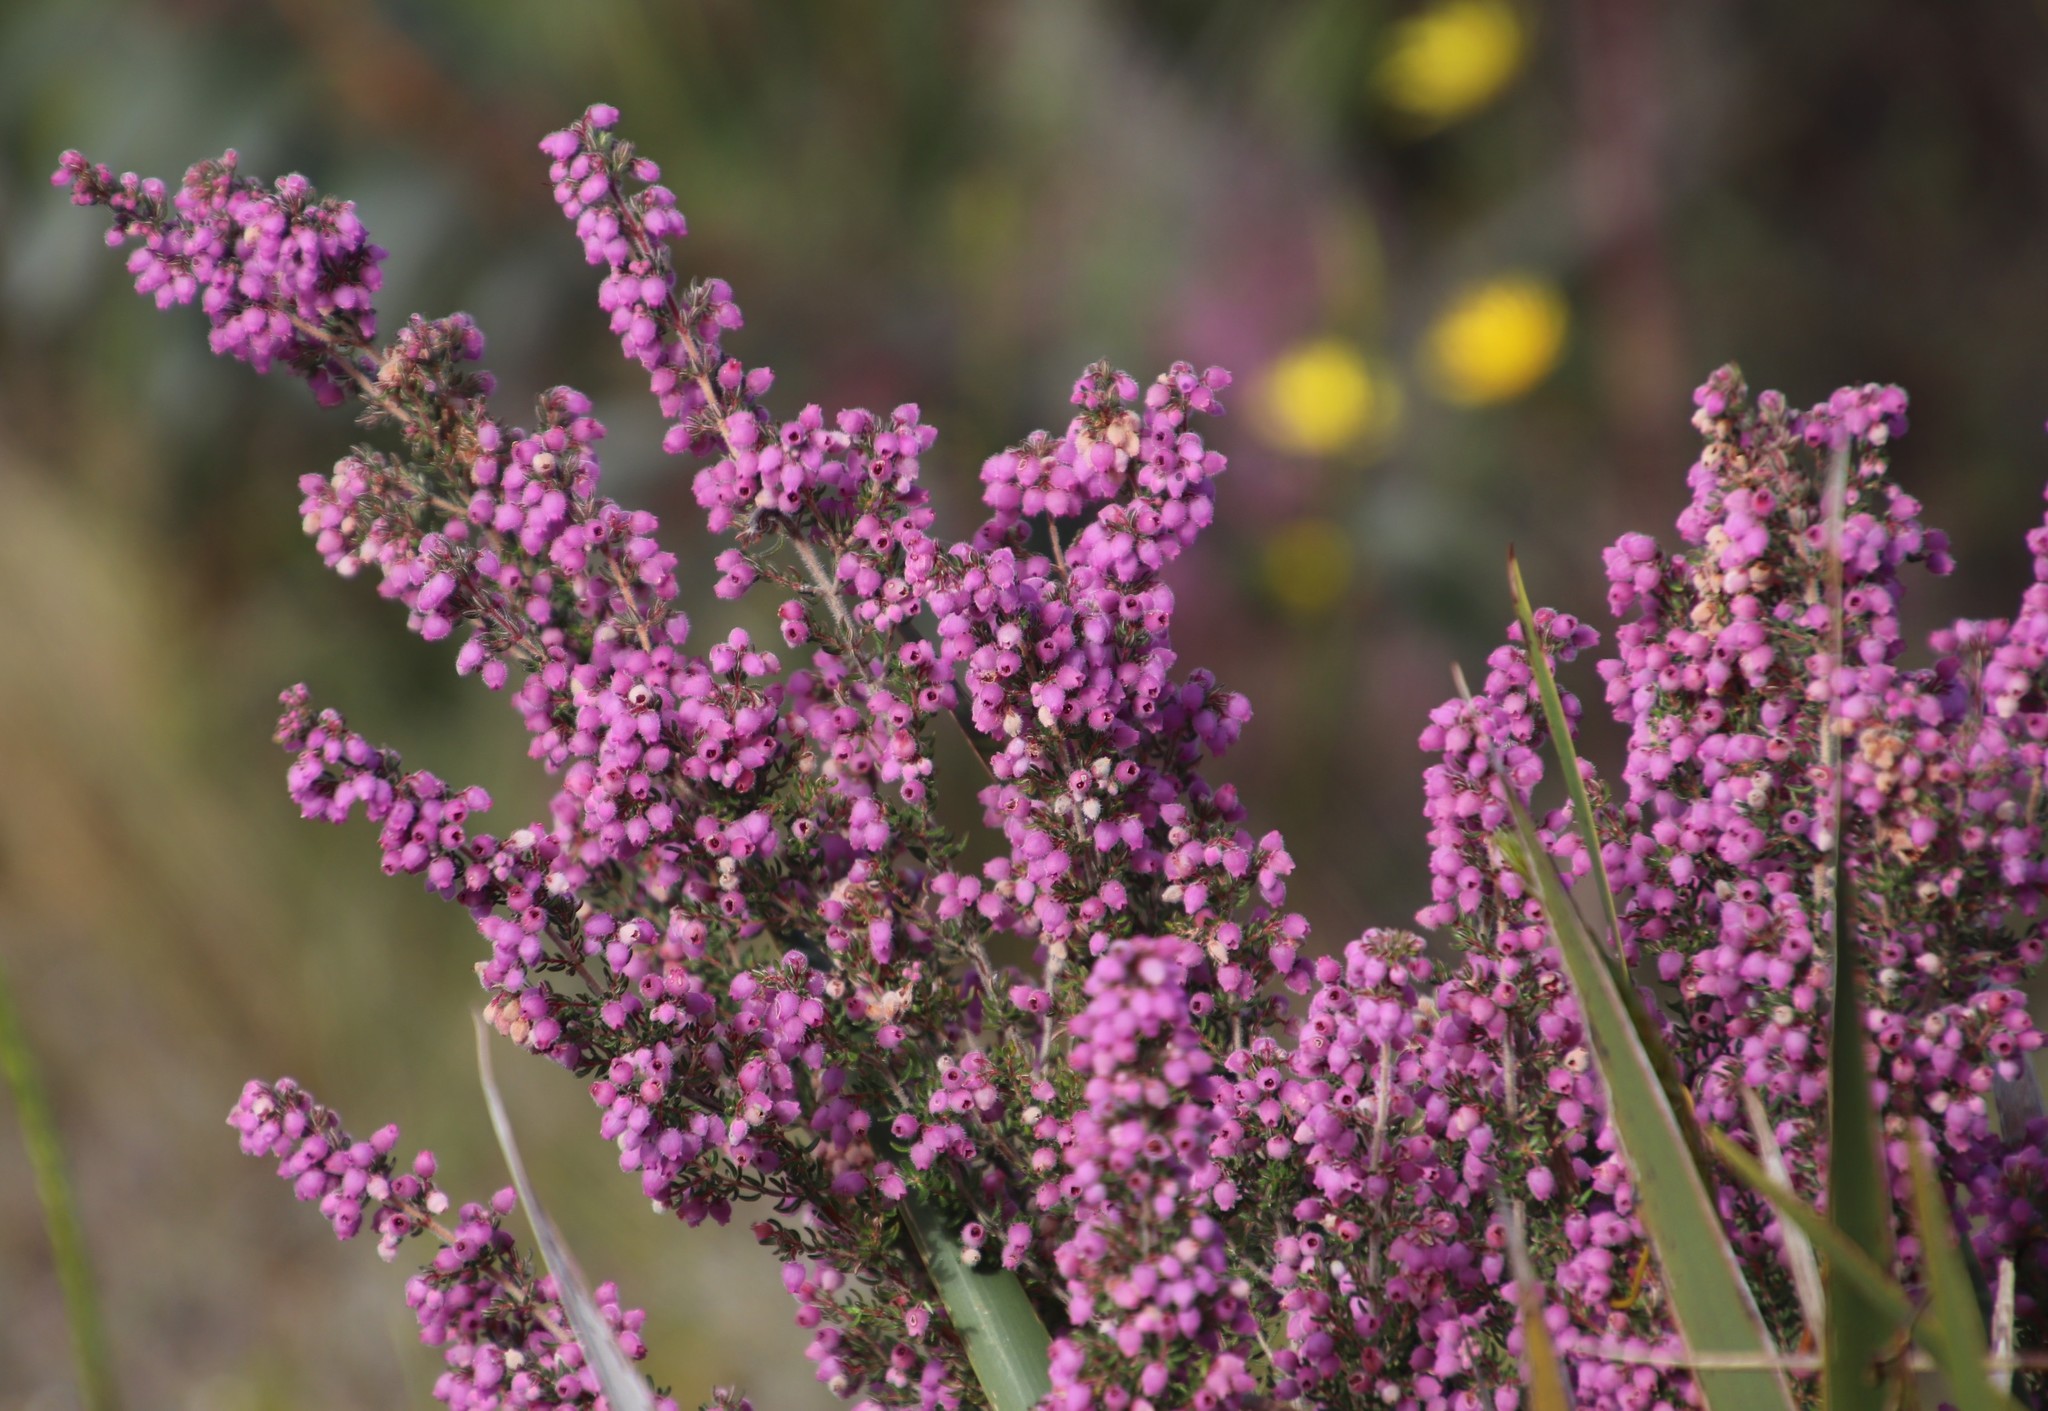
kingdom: Plantae
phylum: Tracheophyta
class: Magnoliopsida
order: Ericales
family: Ericaceae
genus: Erica
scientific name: Erica hirtiflora
